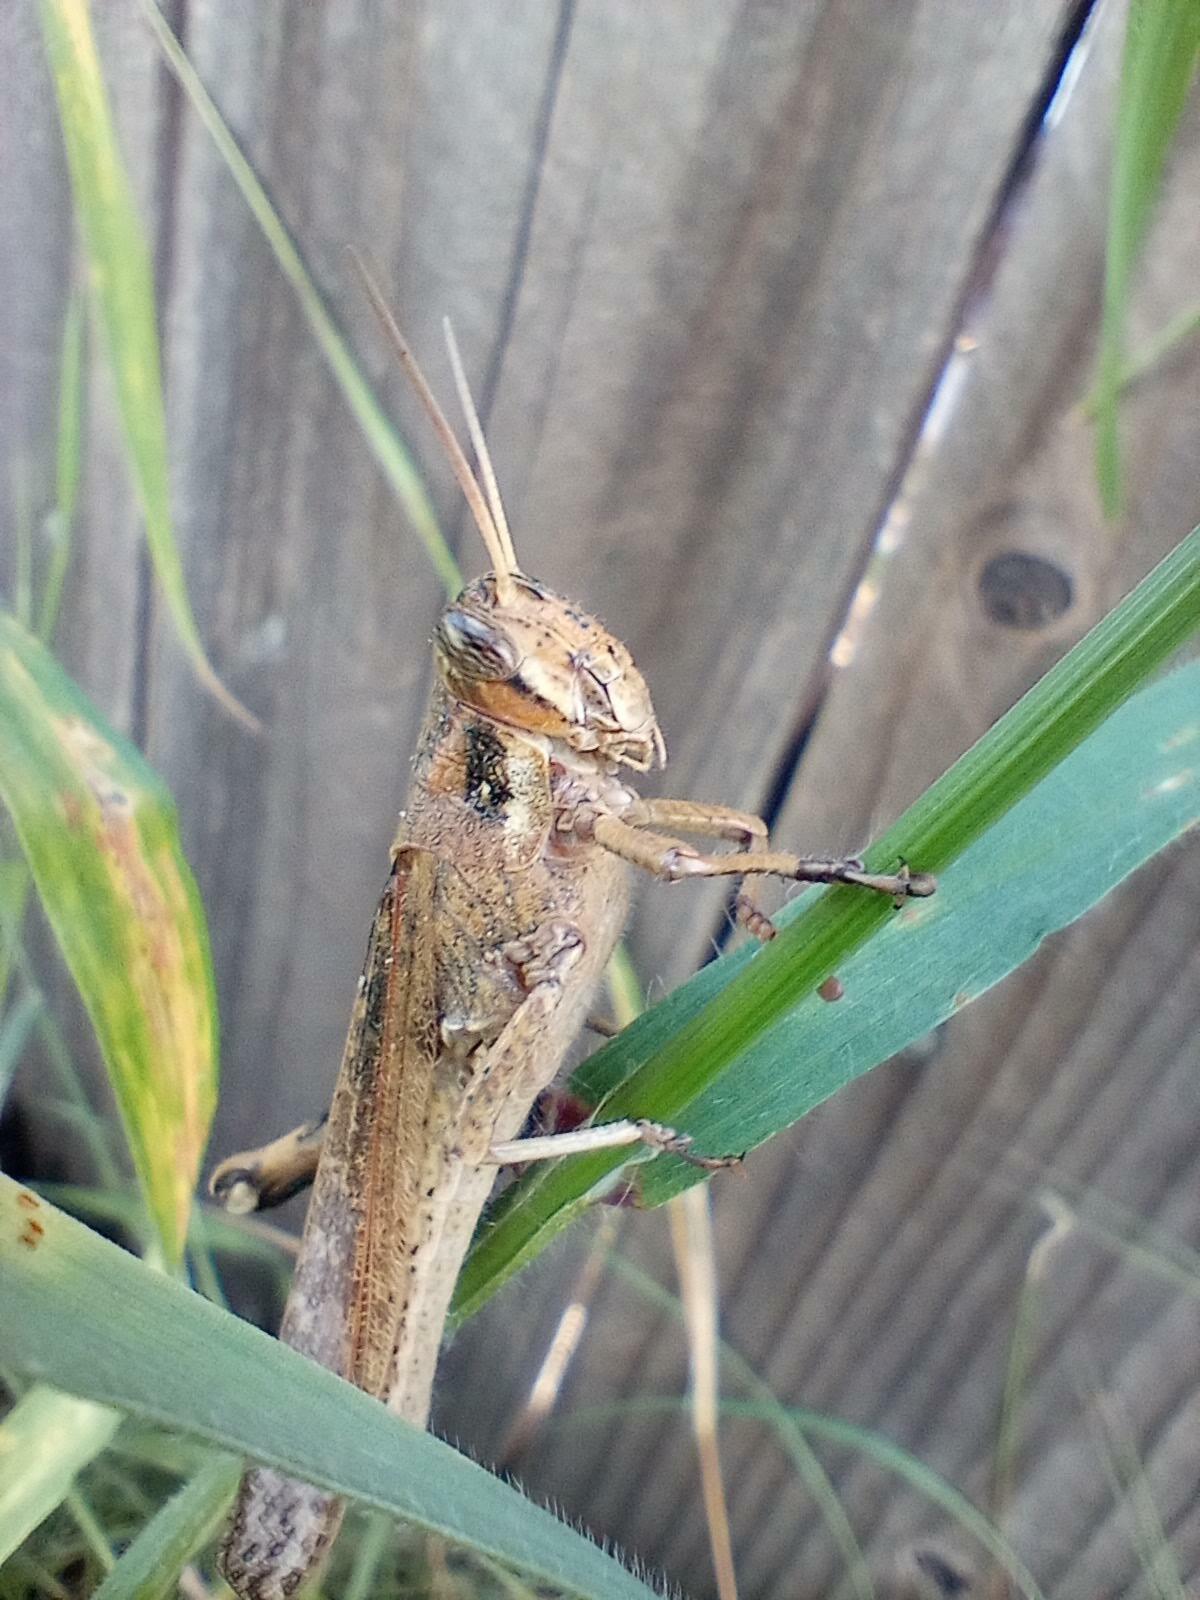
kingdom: Animalia
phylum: Arthropoda
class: Insecta
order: Orthoptera
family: Acrididae
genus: Schistocerca
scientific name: Schistocerca nitens
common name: Vagrant grasshopper
